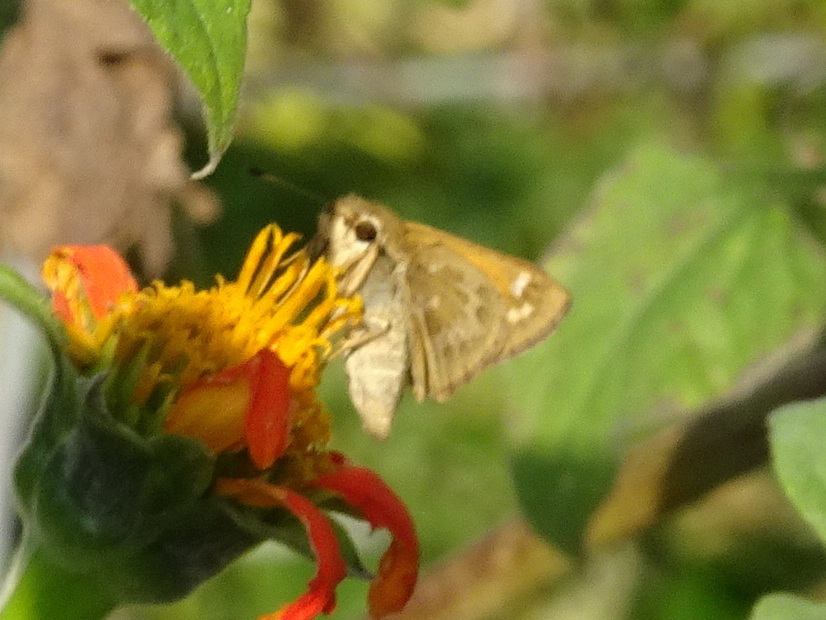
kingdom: Animalia
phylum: Arthropoda
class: Insecta
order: Lepidoptera
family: Hesperiidae
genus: Atalopedes
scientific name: Atalopedes
